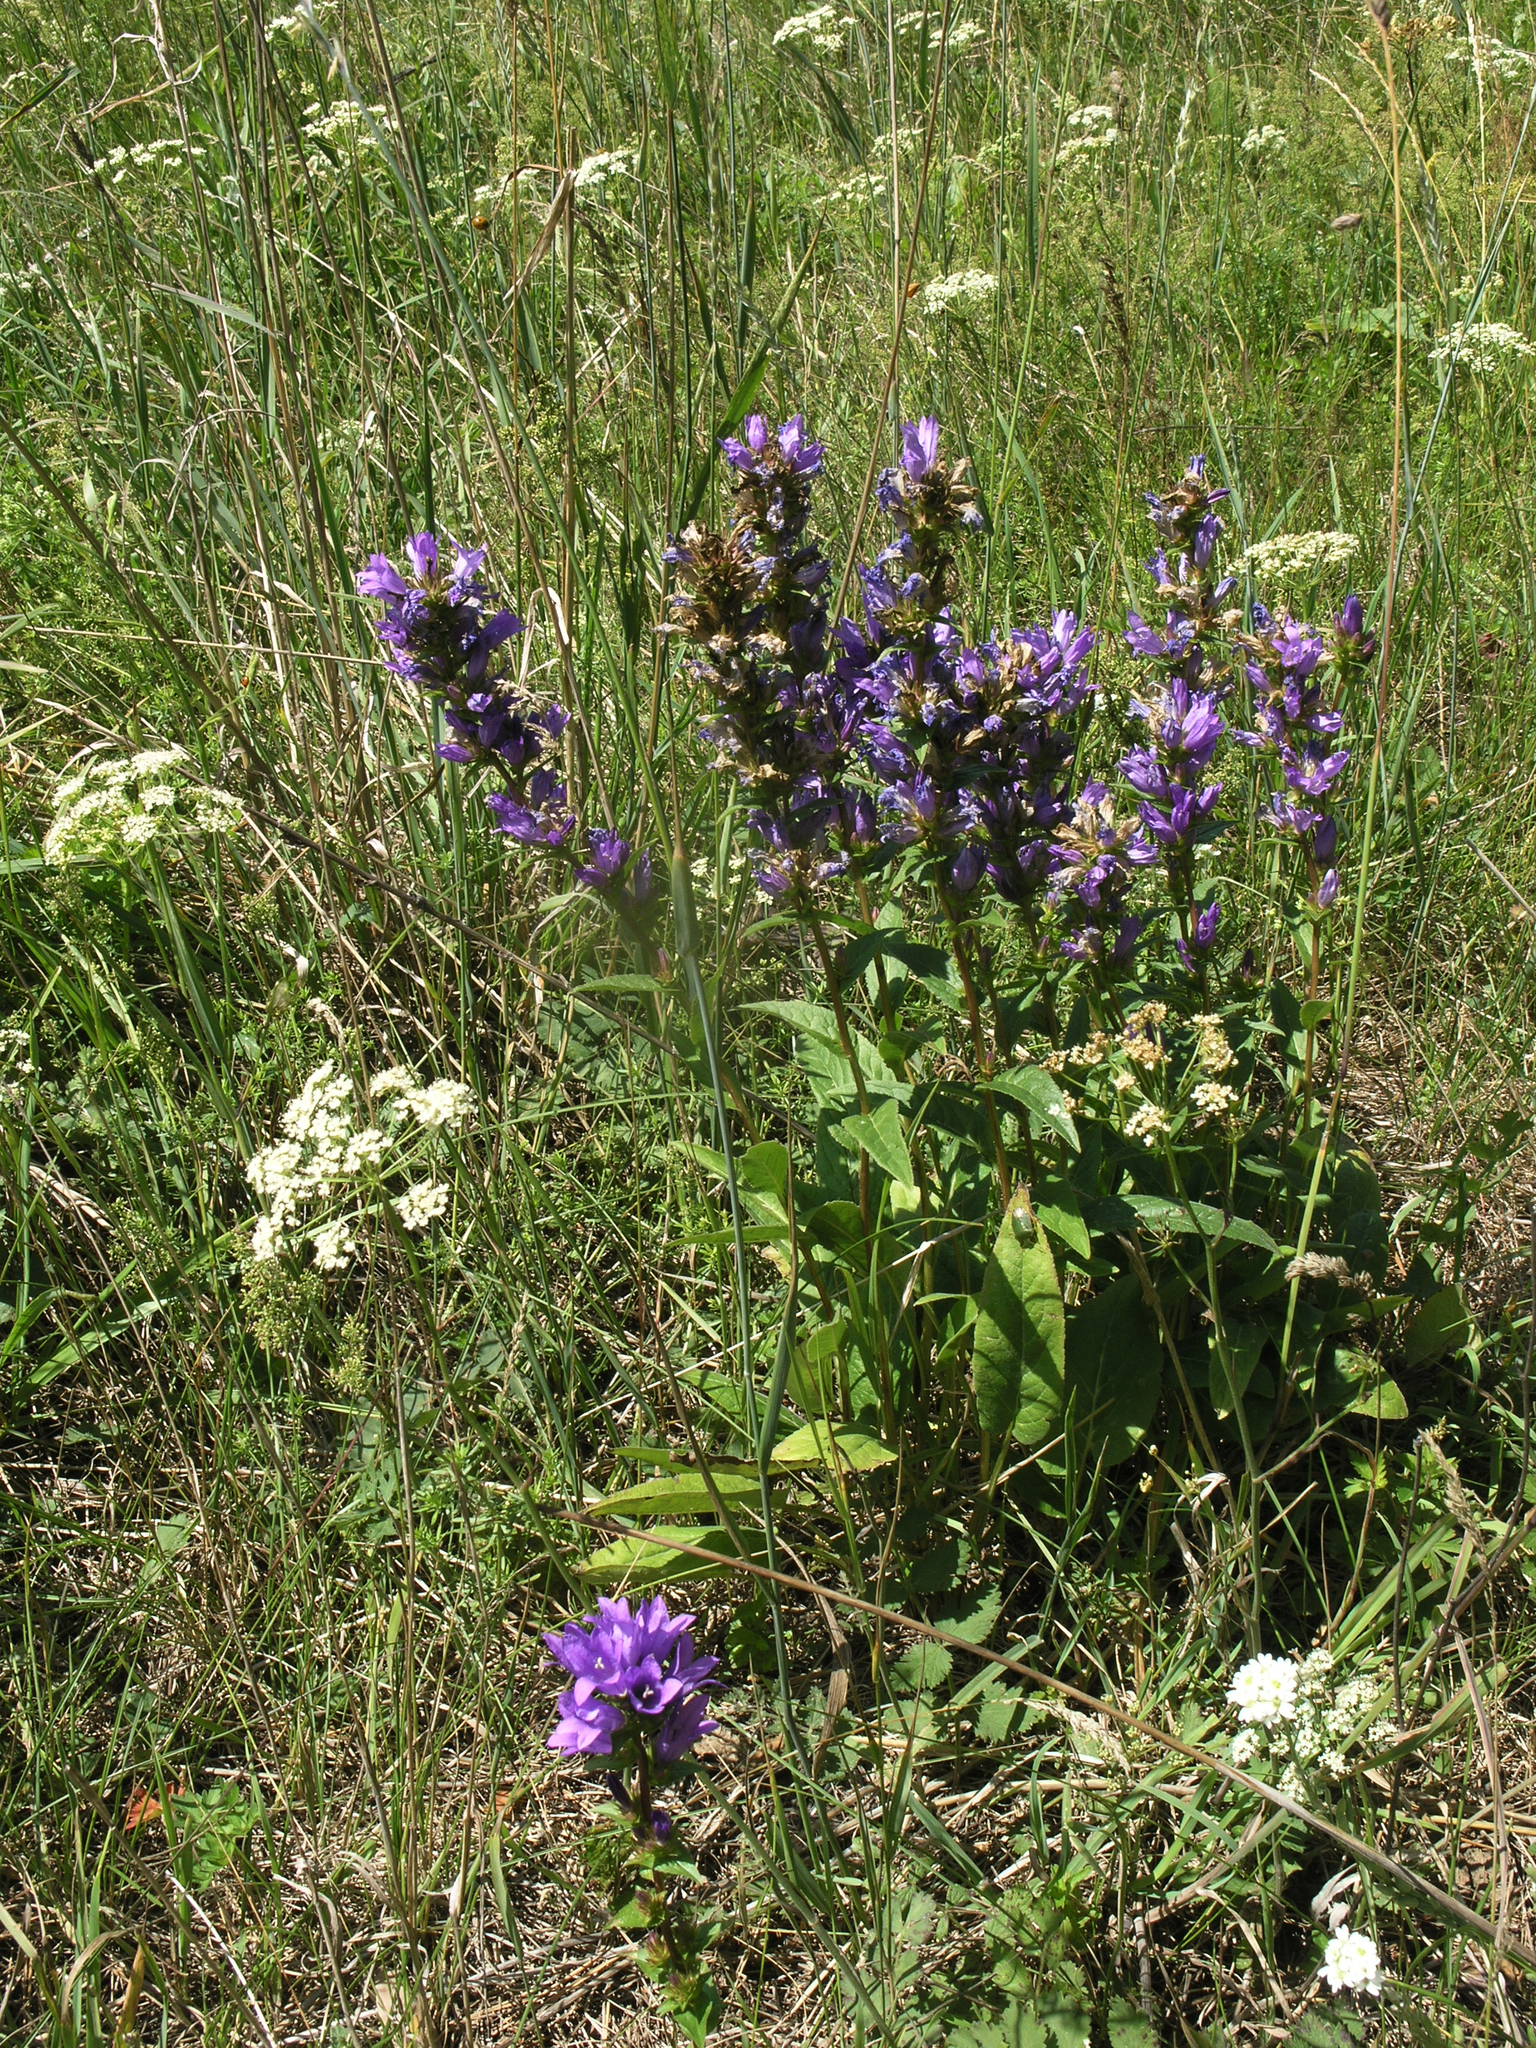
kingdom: Plantae
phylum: Tracheophyta
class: Magnoliopsida
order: Asterales
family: Campanulaceae
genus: Campanula
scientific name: Campanula glomerata
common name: Clustered bellflower
